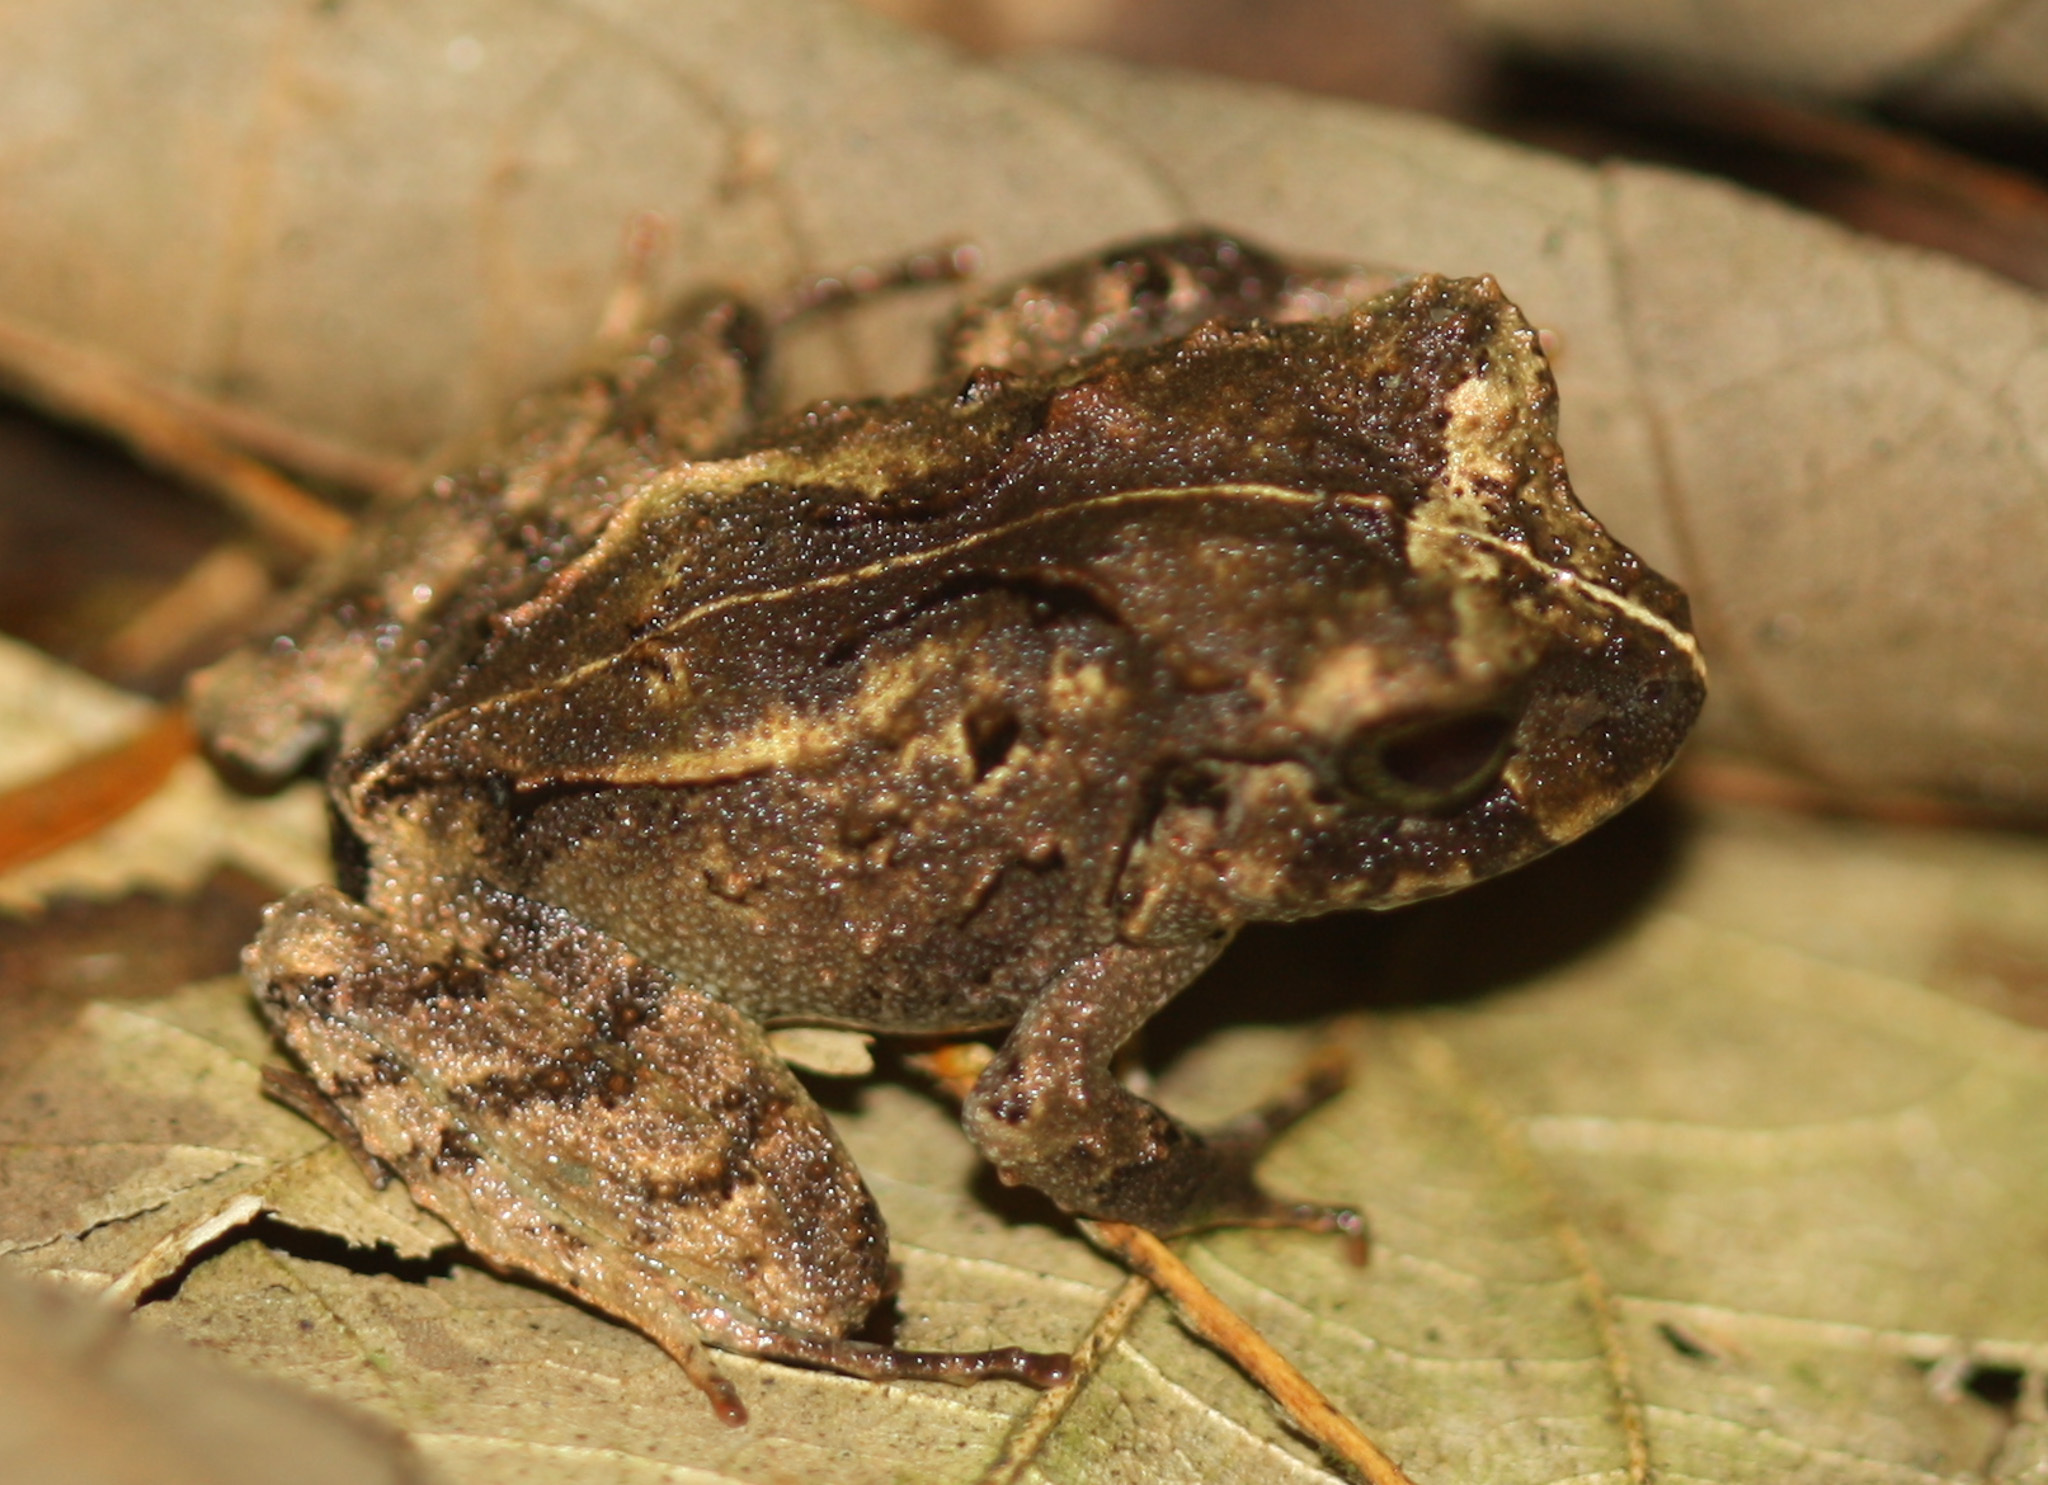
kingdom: Animalia
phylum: Chordata
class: Amphibia
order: Anura
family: Craugastoridae
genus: Craugastor
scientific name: Craugastor megacephalus
